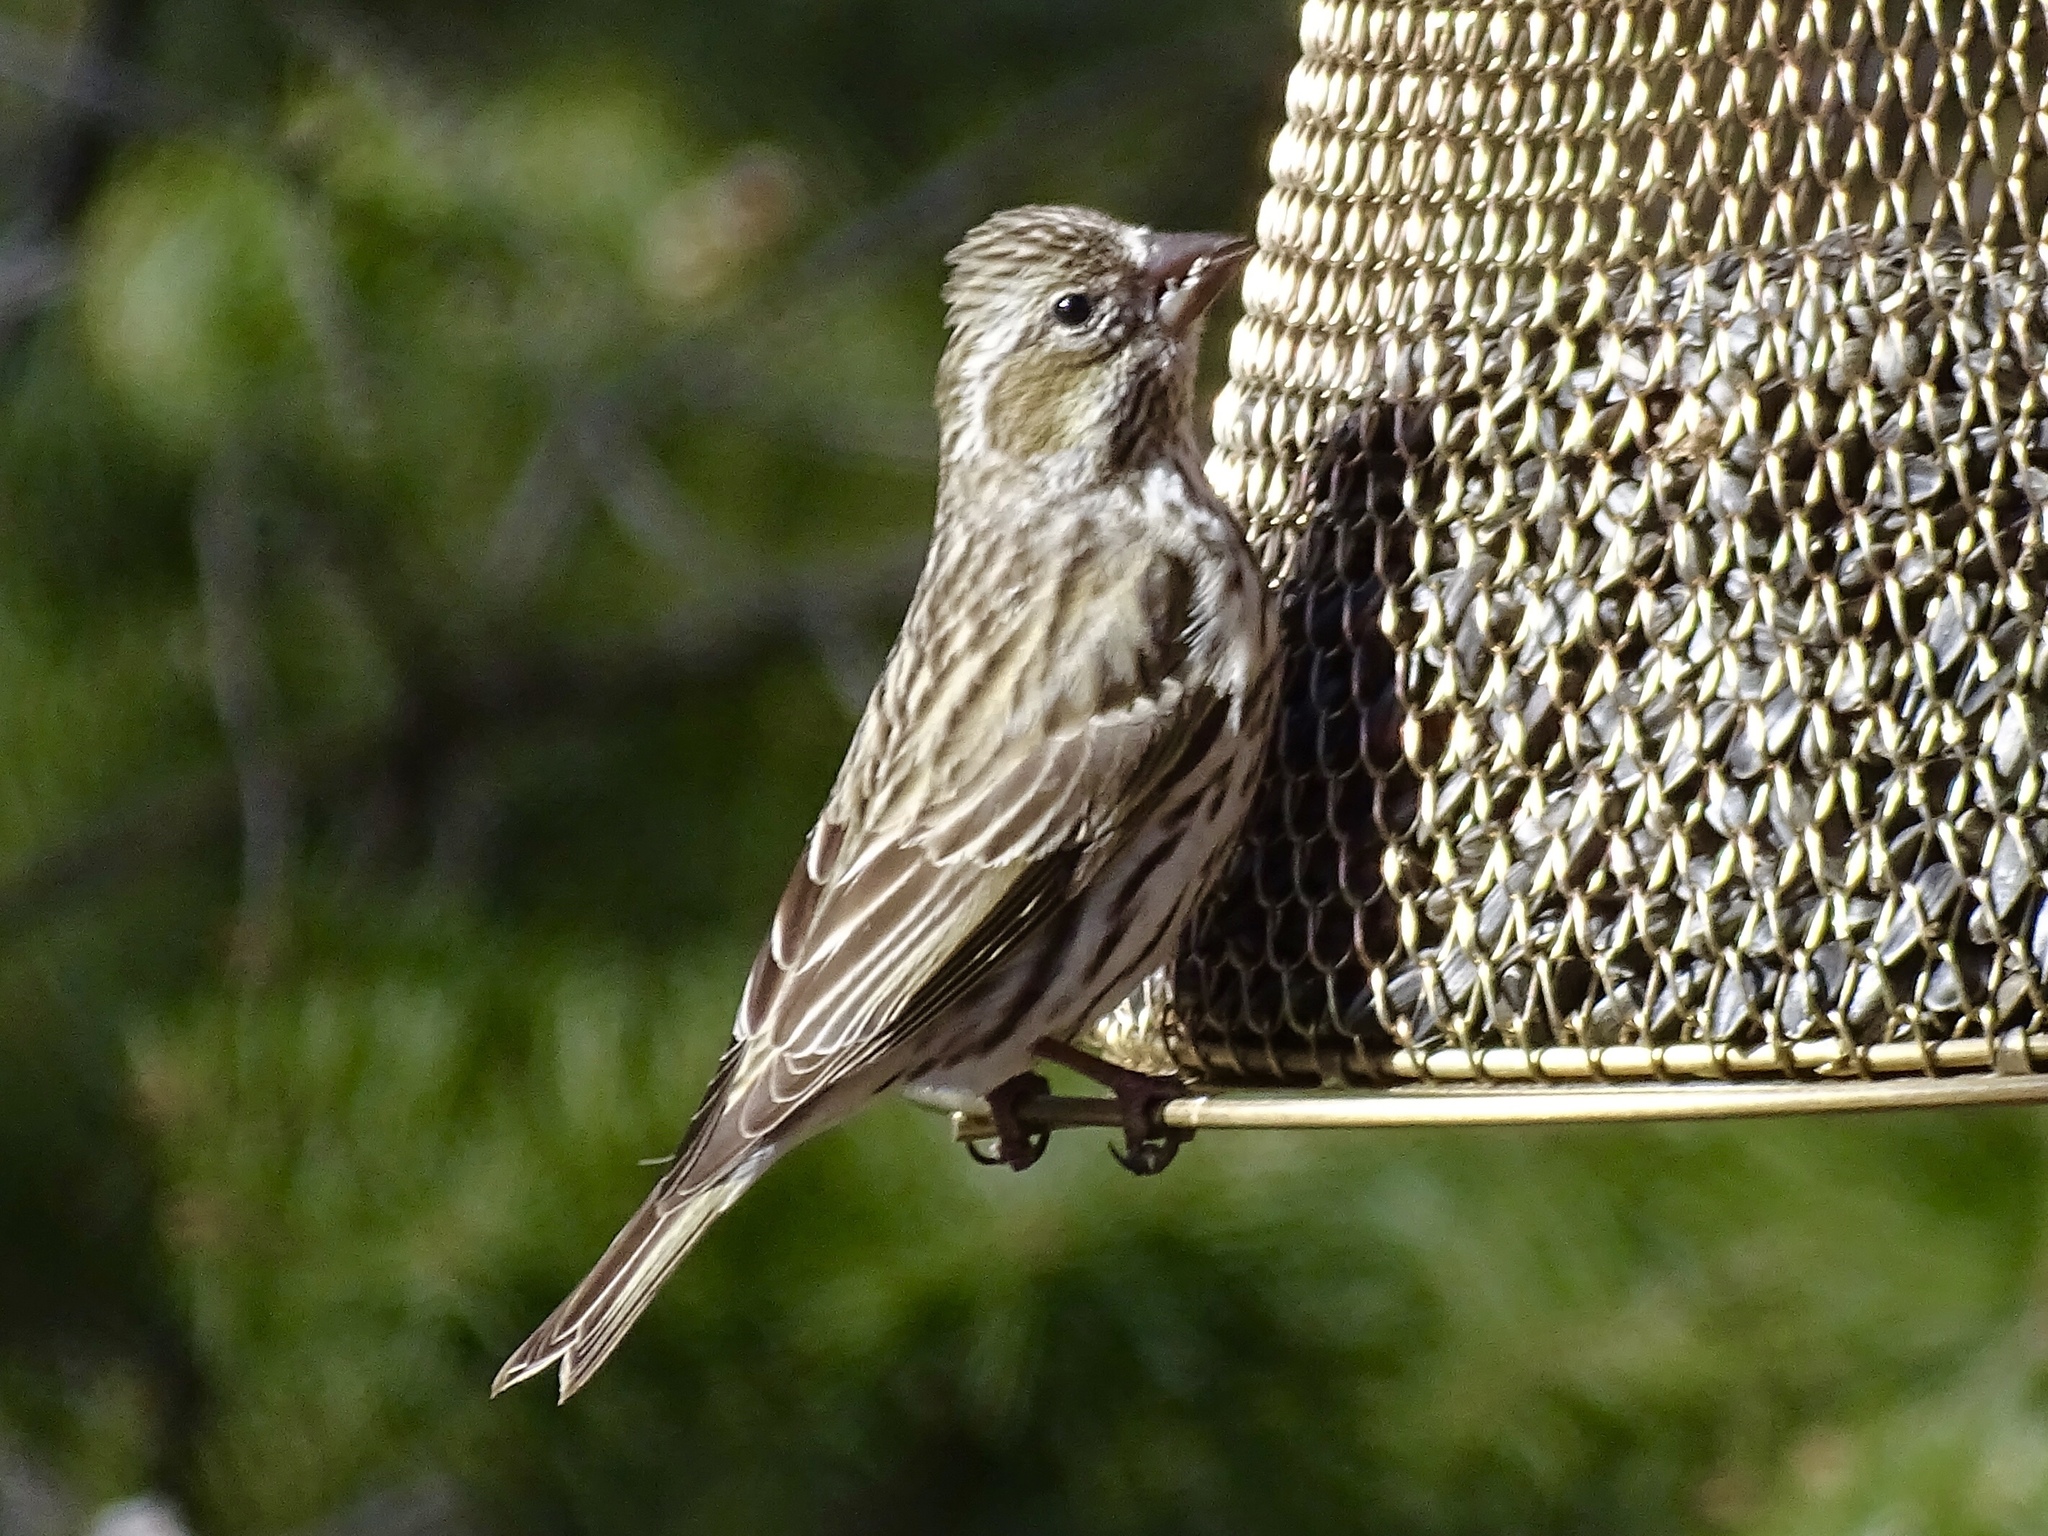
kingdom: Animalia
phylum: Chordata
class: Aves
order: Passeriformes
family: Fringillidae
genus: Haemorhous
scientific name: Haemorhous cassinii
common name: Cassin's finch
